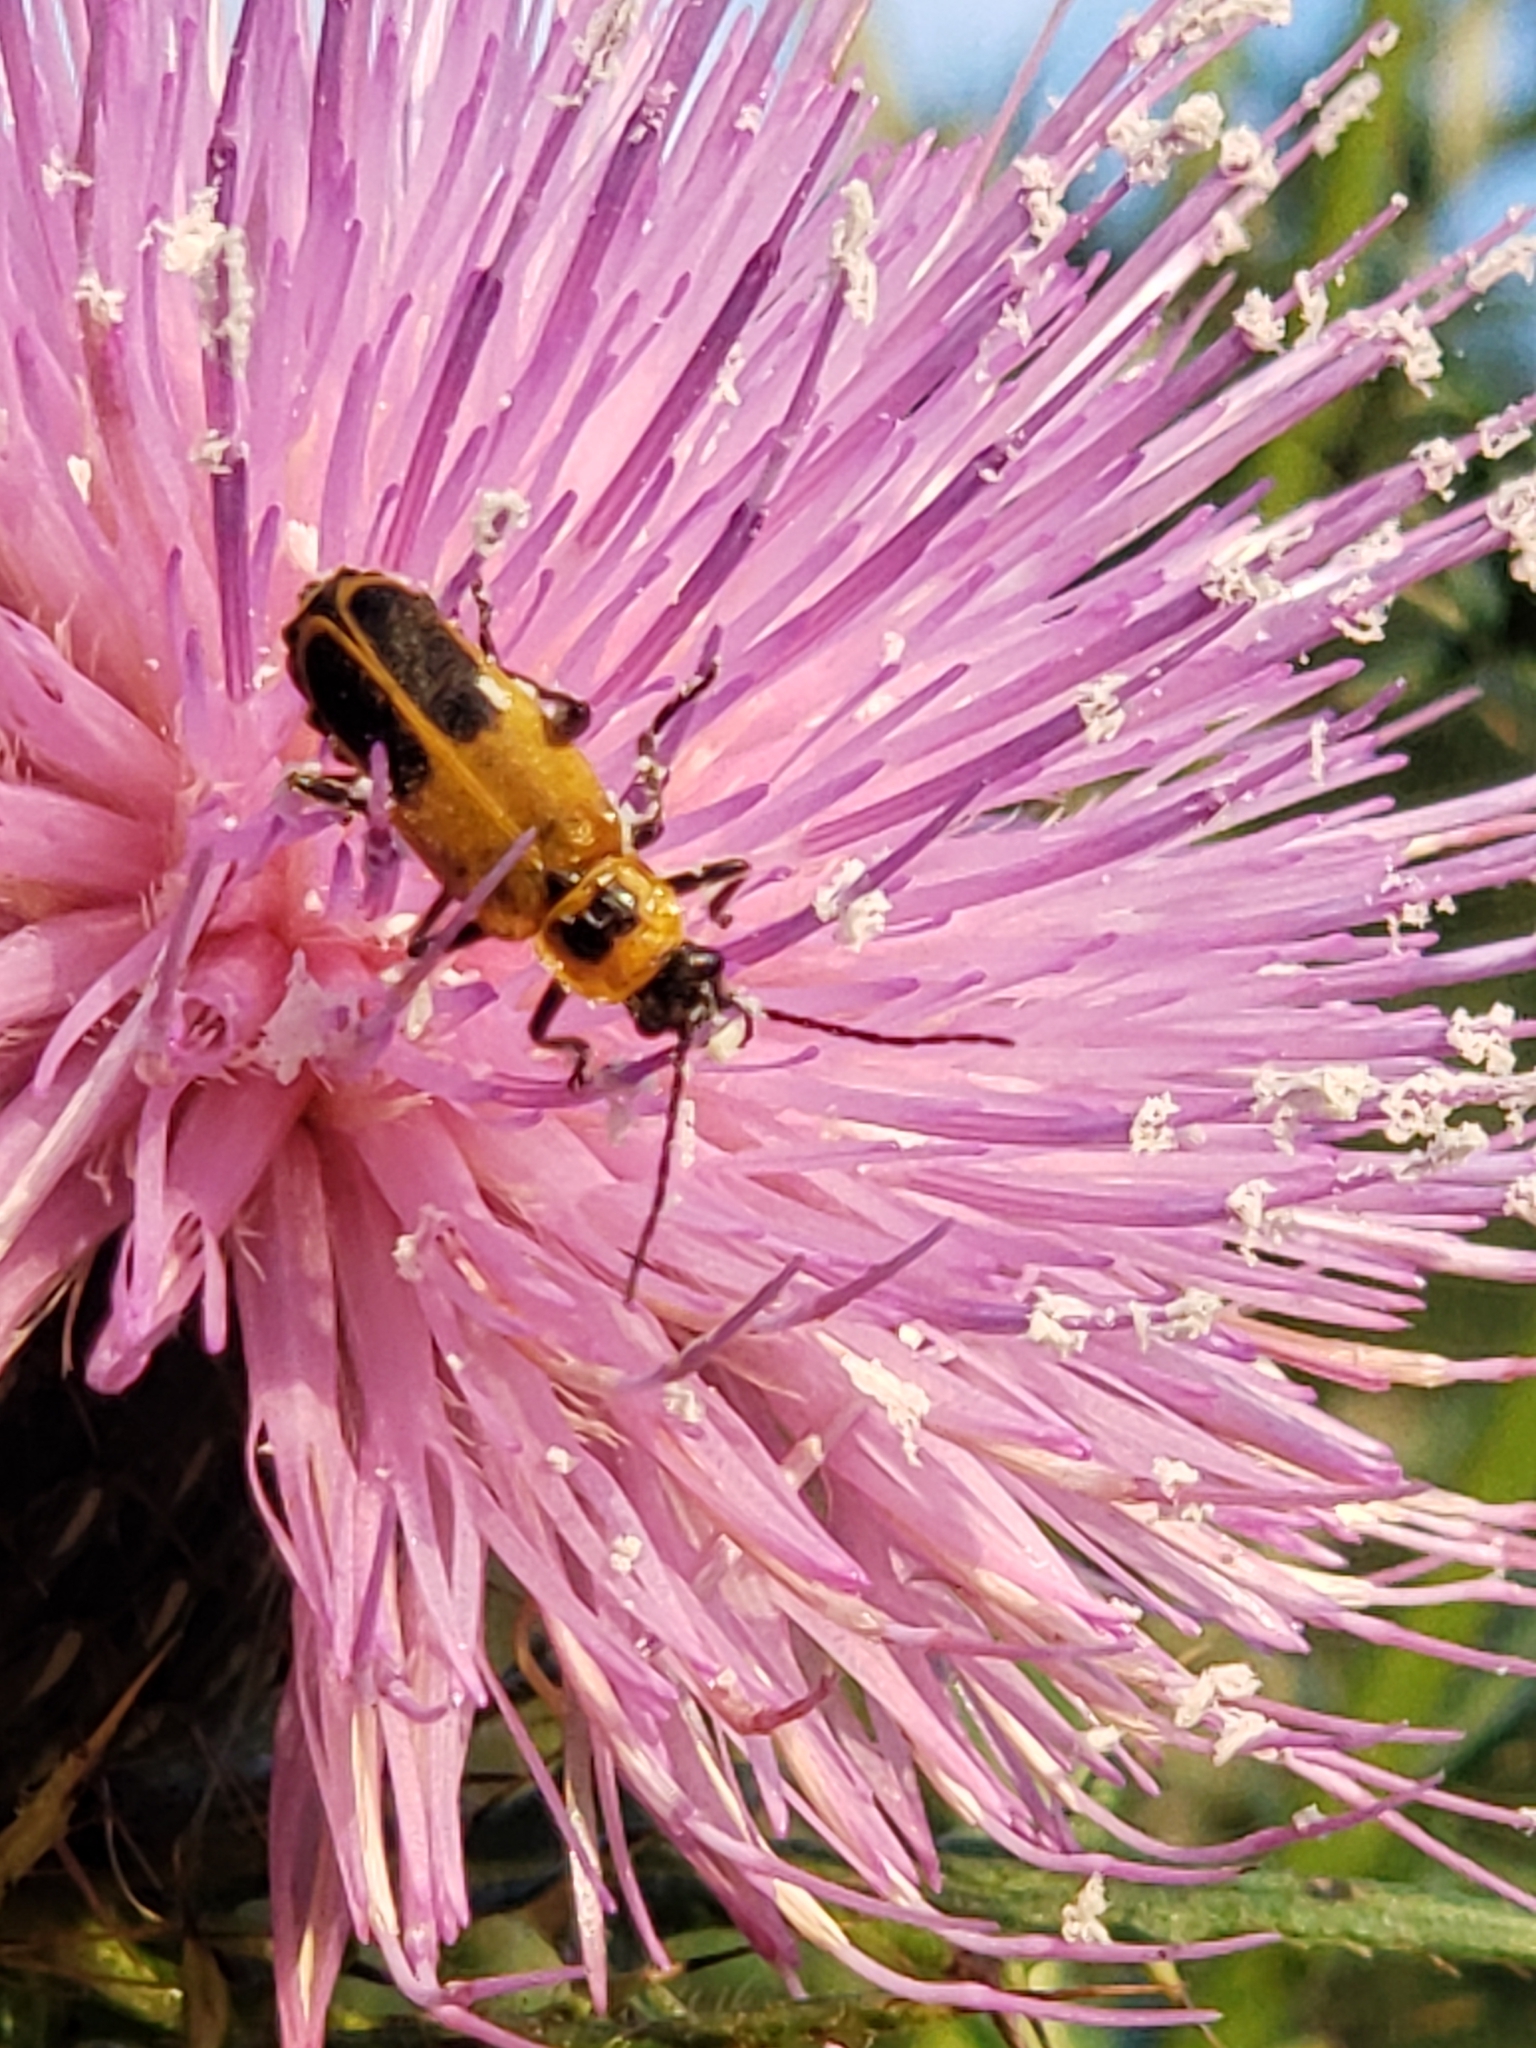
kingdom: Animalia
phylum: Arthropoda
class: Insecta
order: Coleoptera
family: Cantharidae
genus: Chauliognathus
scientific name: Chauliognathus pensylvanicus
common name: Goldenrod soldier beetle
